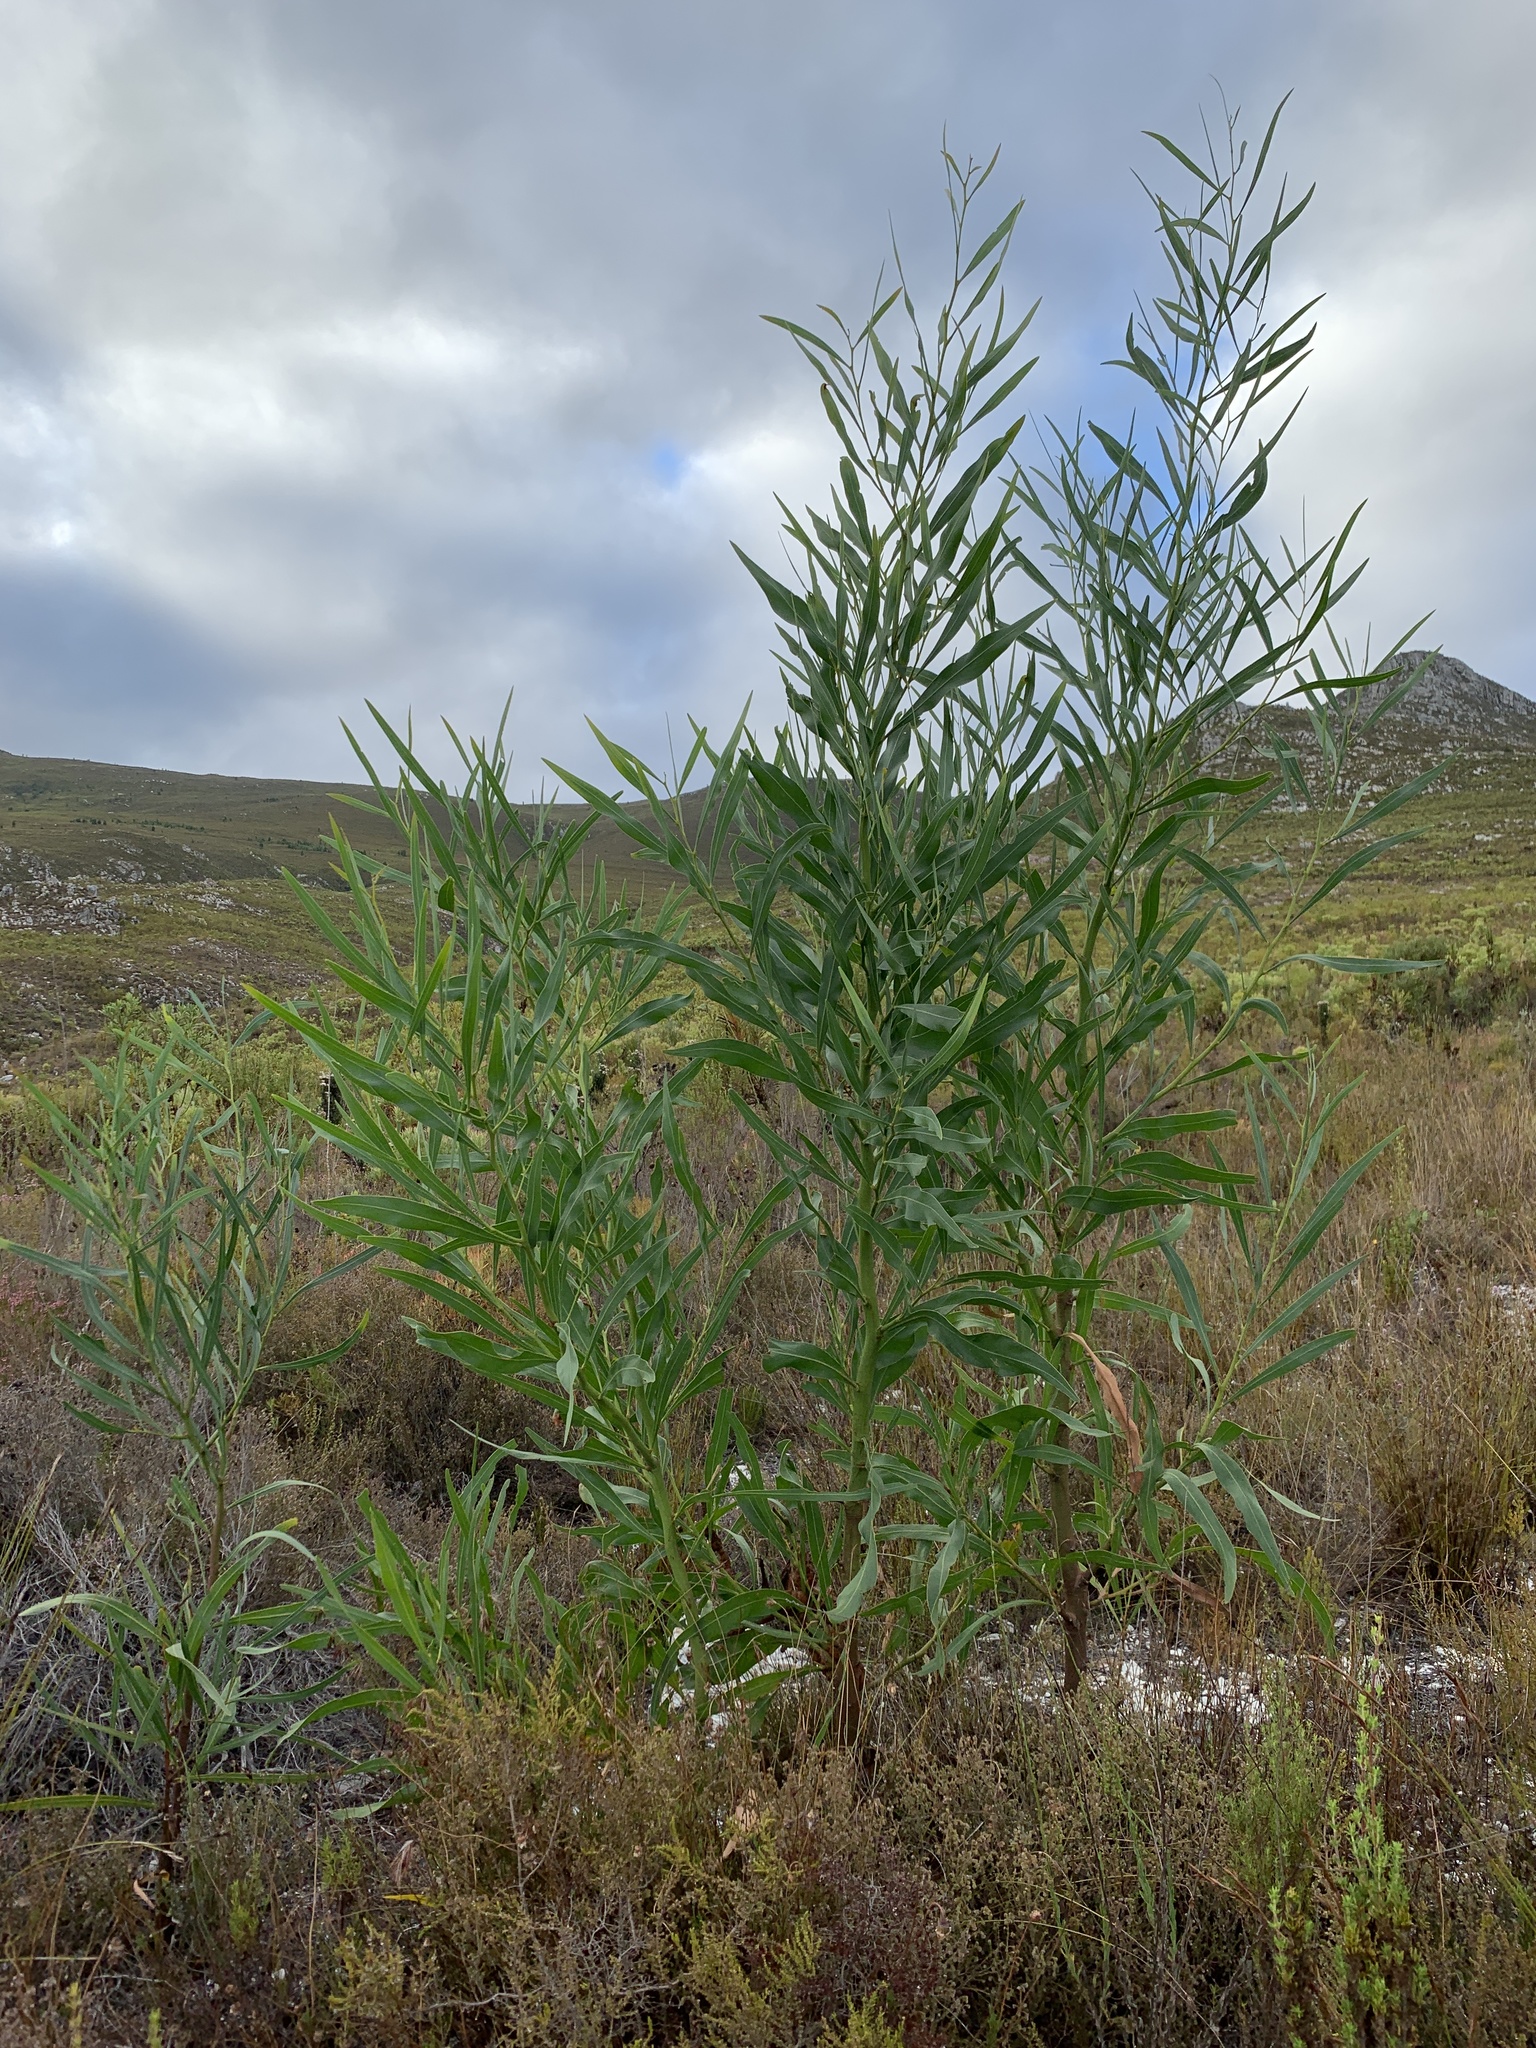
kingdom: Plantae
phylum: Tracheophyta
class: Magnoliopsida
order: Fabales
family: Fabaceae
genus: Acacia
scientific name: Acacia saligna
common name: Orange wattle
